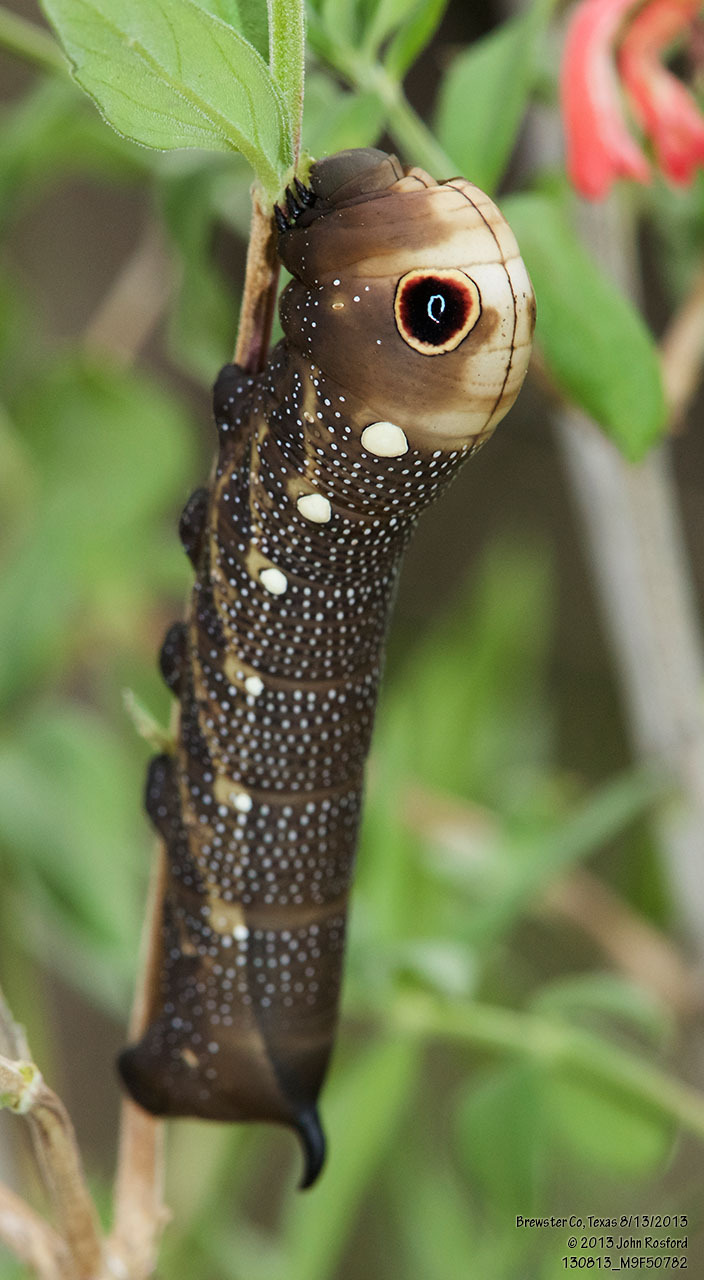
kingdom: Animalia
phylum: Arthropoda
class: Insecta
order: Lepidoptera
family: Sphingidae
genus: Xylophanes
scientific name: Xylophanes falco
